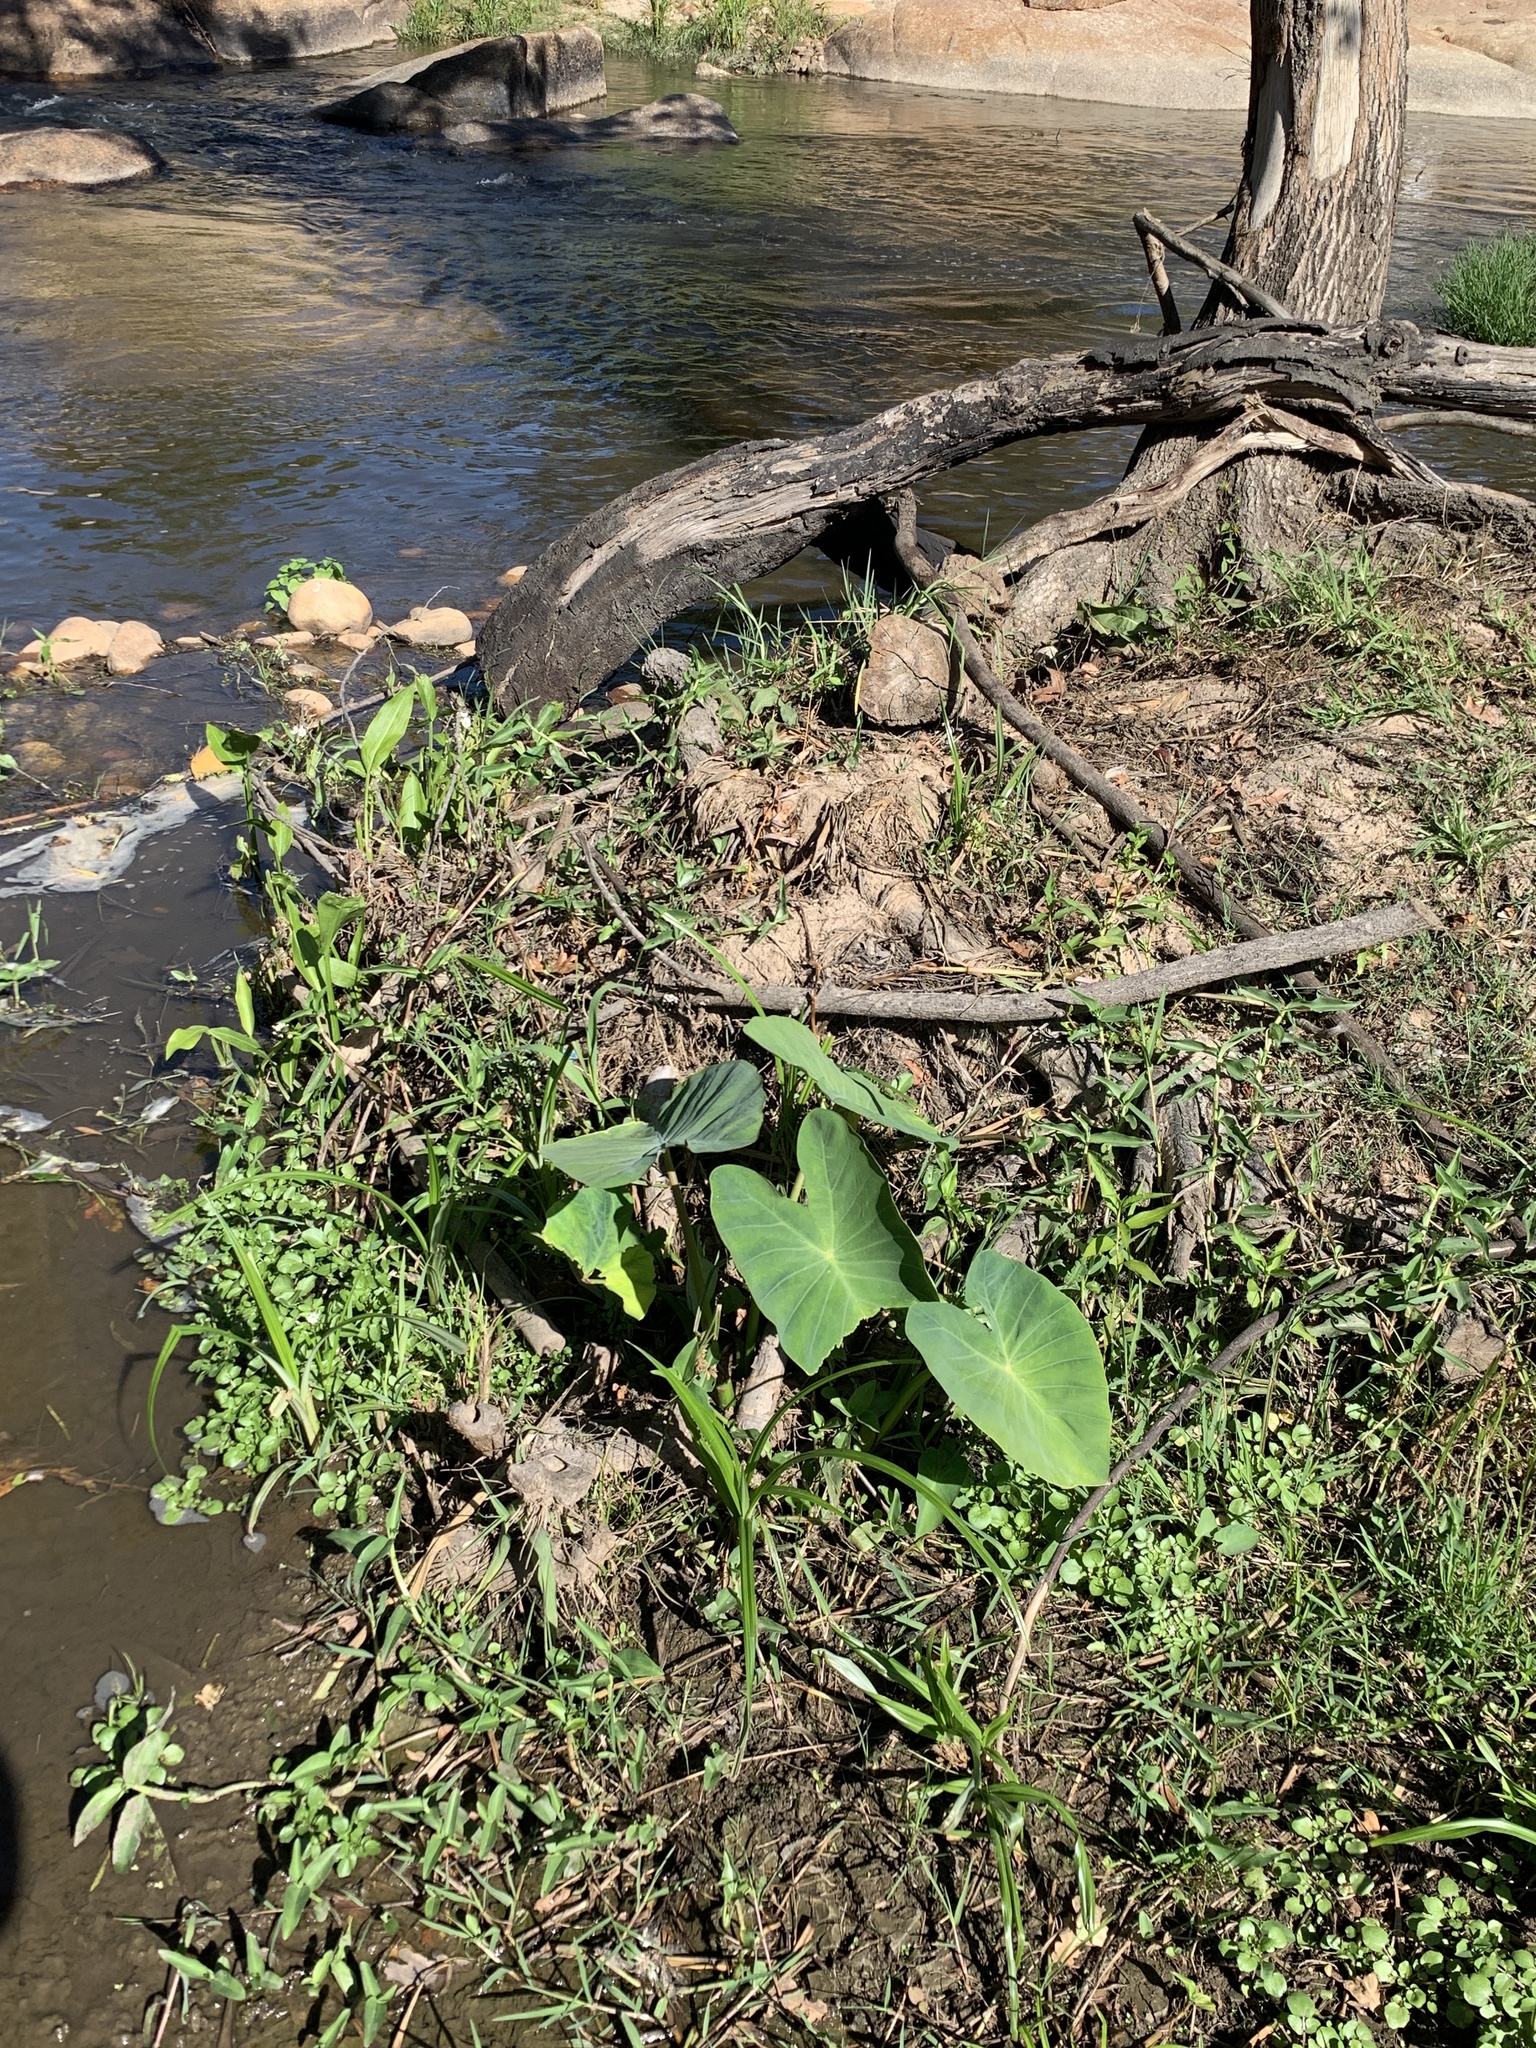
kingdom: Plantae
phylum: Tracheophyta
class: Liliopsida
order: Alismatales
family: Araceae
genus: Colocasia
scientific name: Colocasia esculenta
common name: Taro
